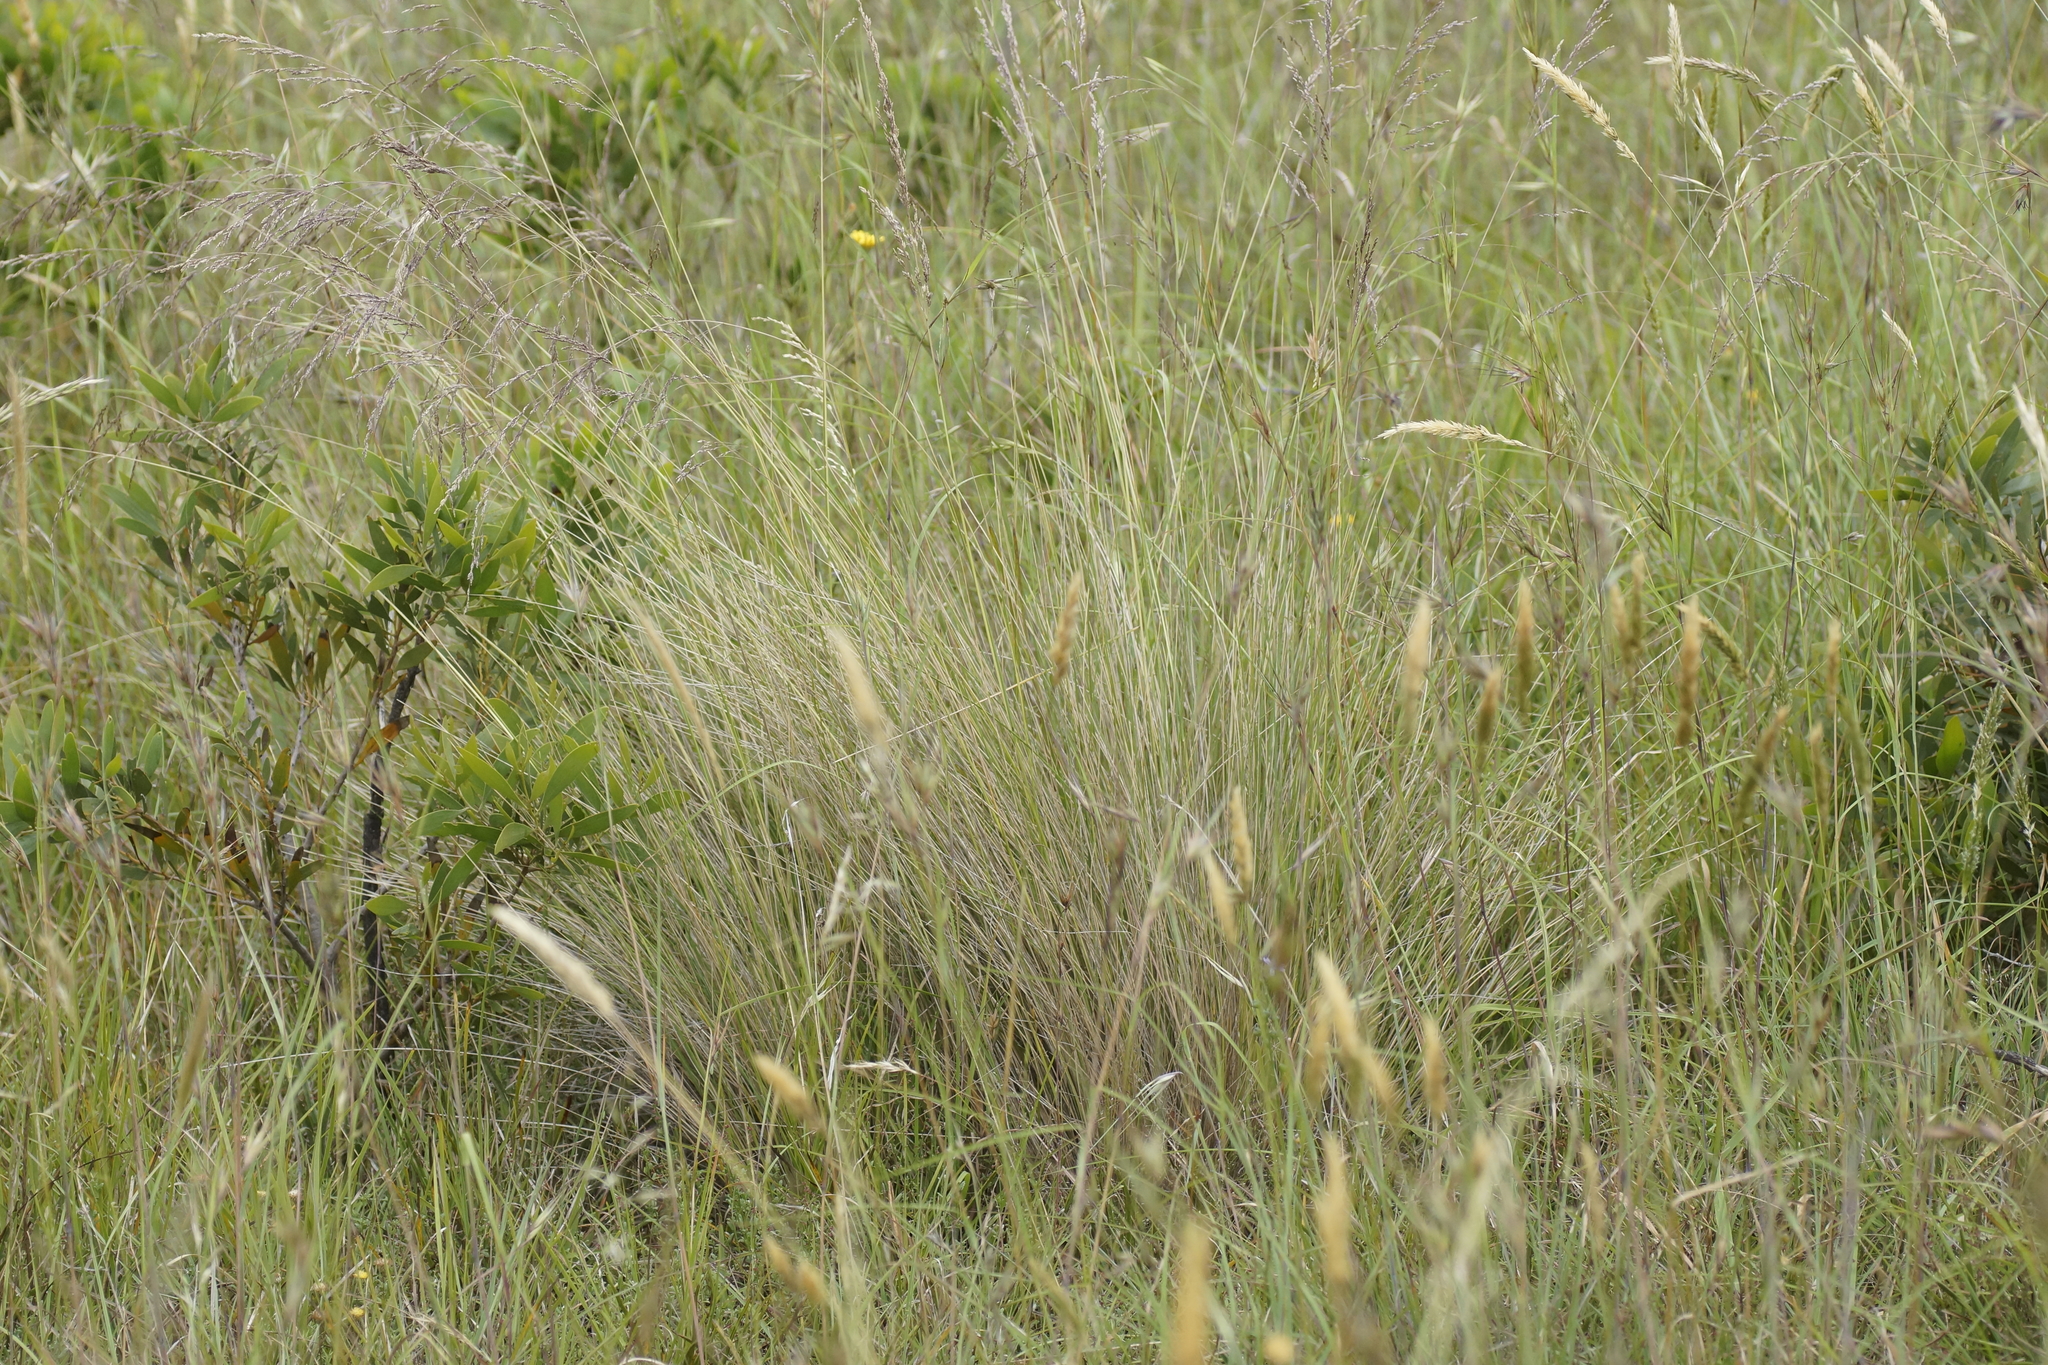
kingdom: Plantae
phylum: Tracheophyta
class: Liliopsida
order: Poales
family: Poaceae
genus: Poa
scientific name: Poa labillardierei
